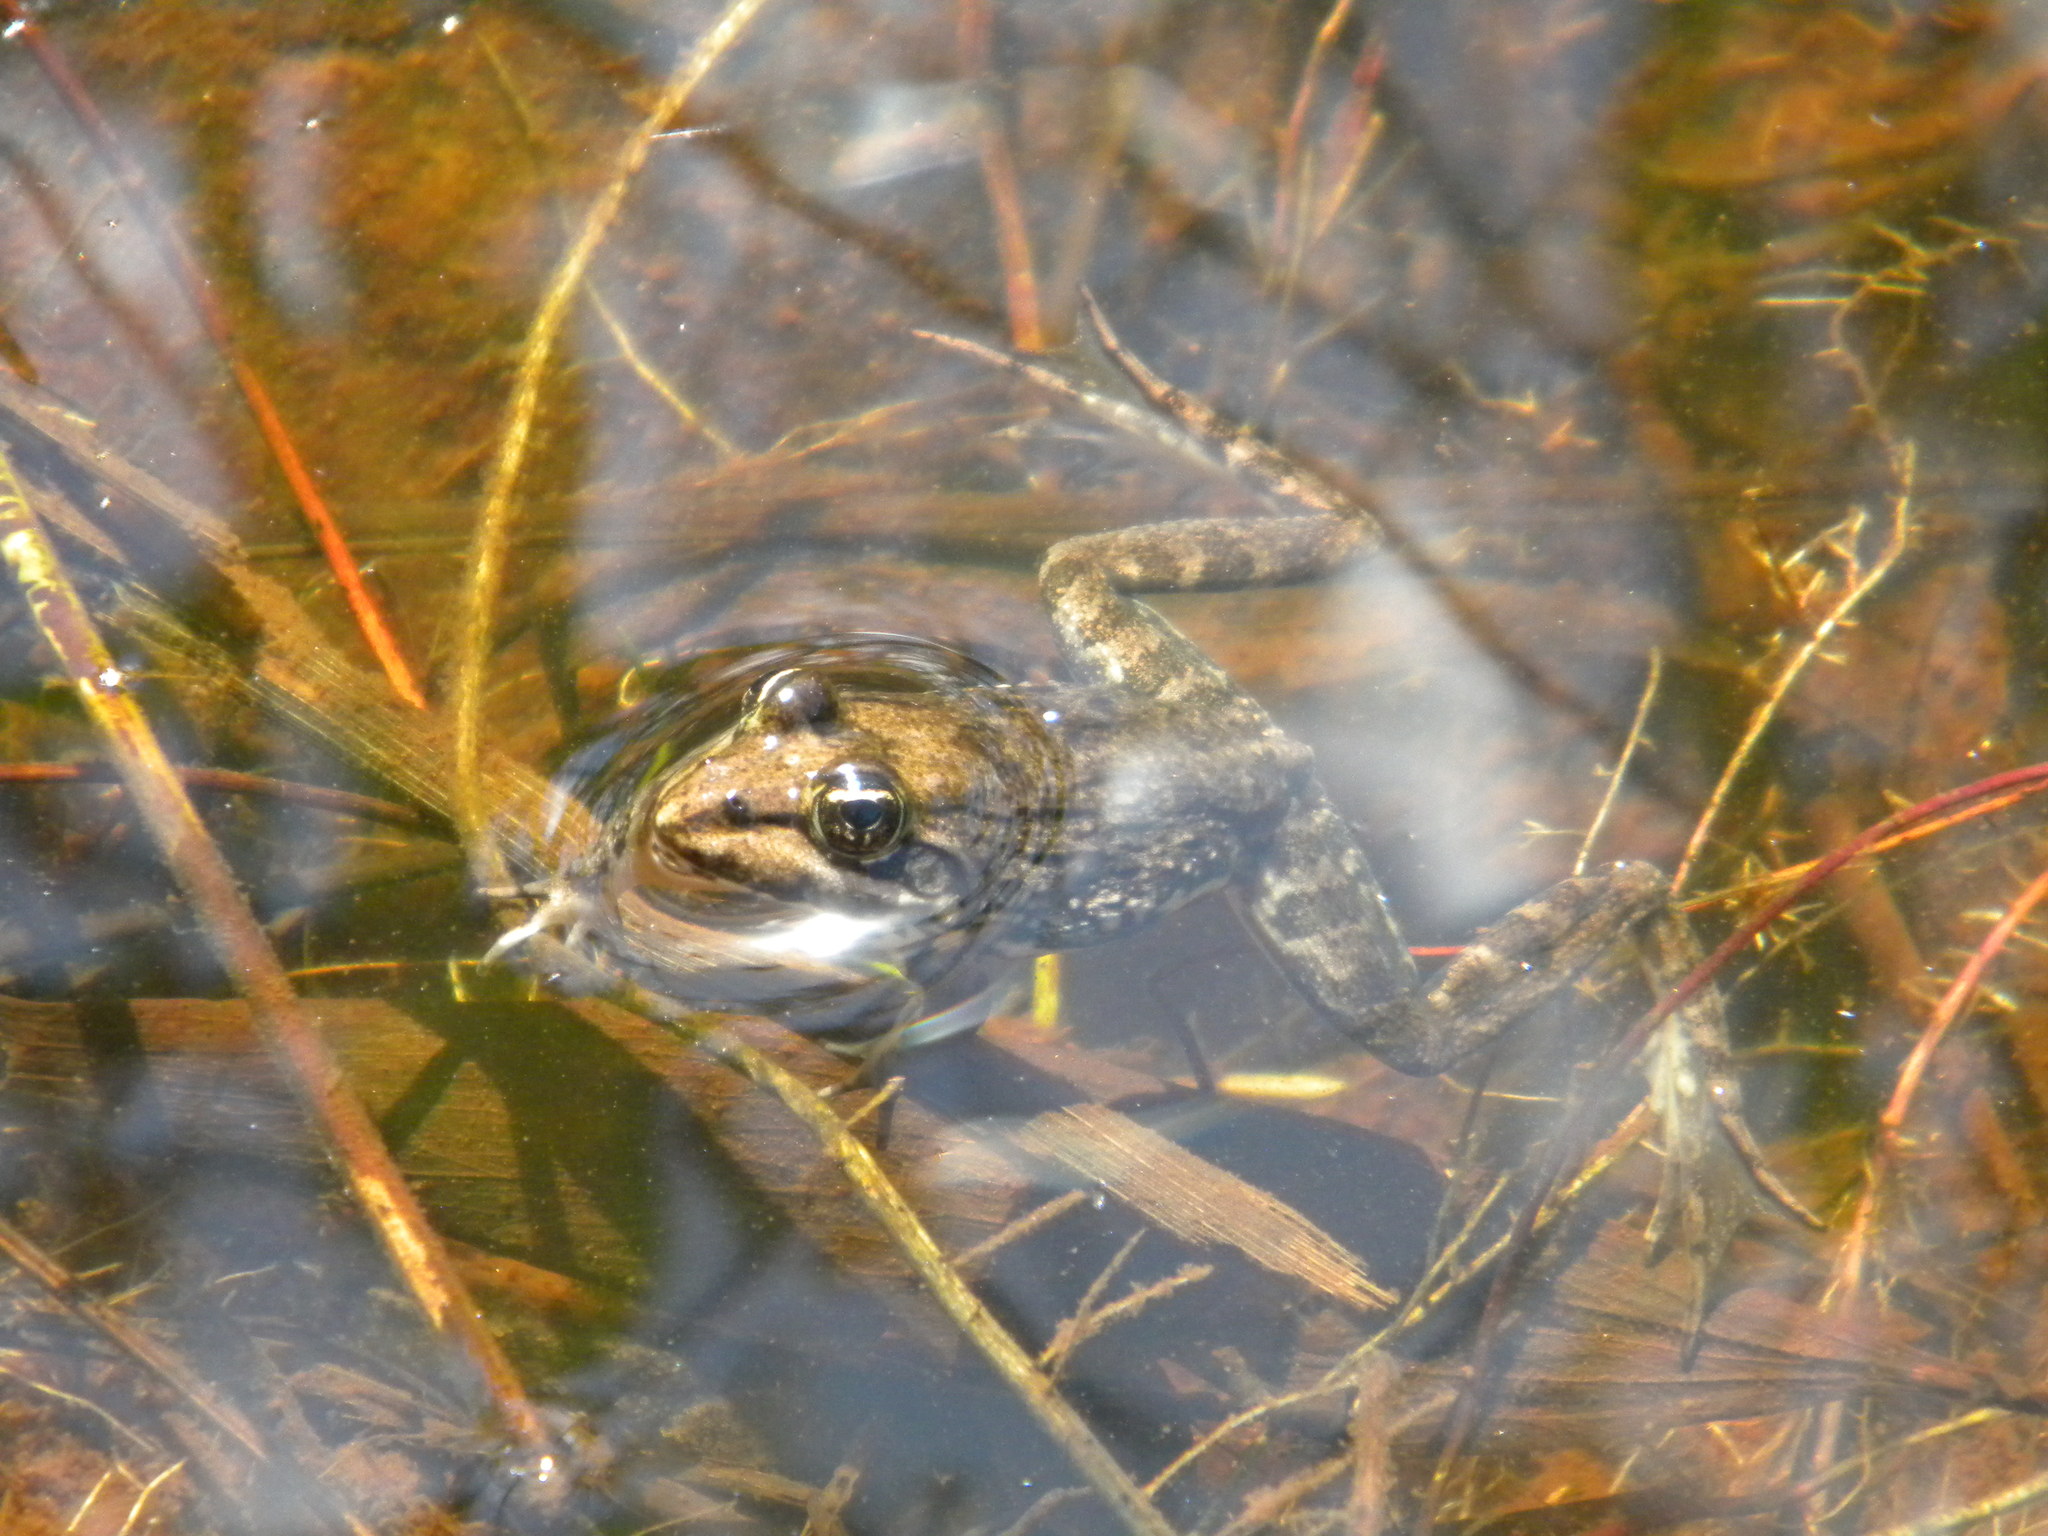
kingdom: Animalia
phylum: Chordata
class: Amphibia
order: Anura
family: Pyxicephalidae
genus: Amietia
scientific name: Amietia fuscigula
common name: Cape rana
